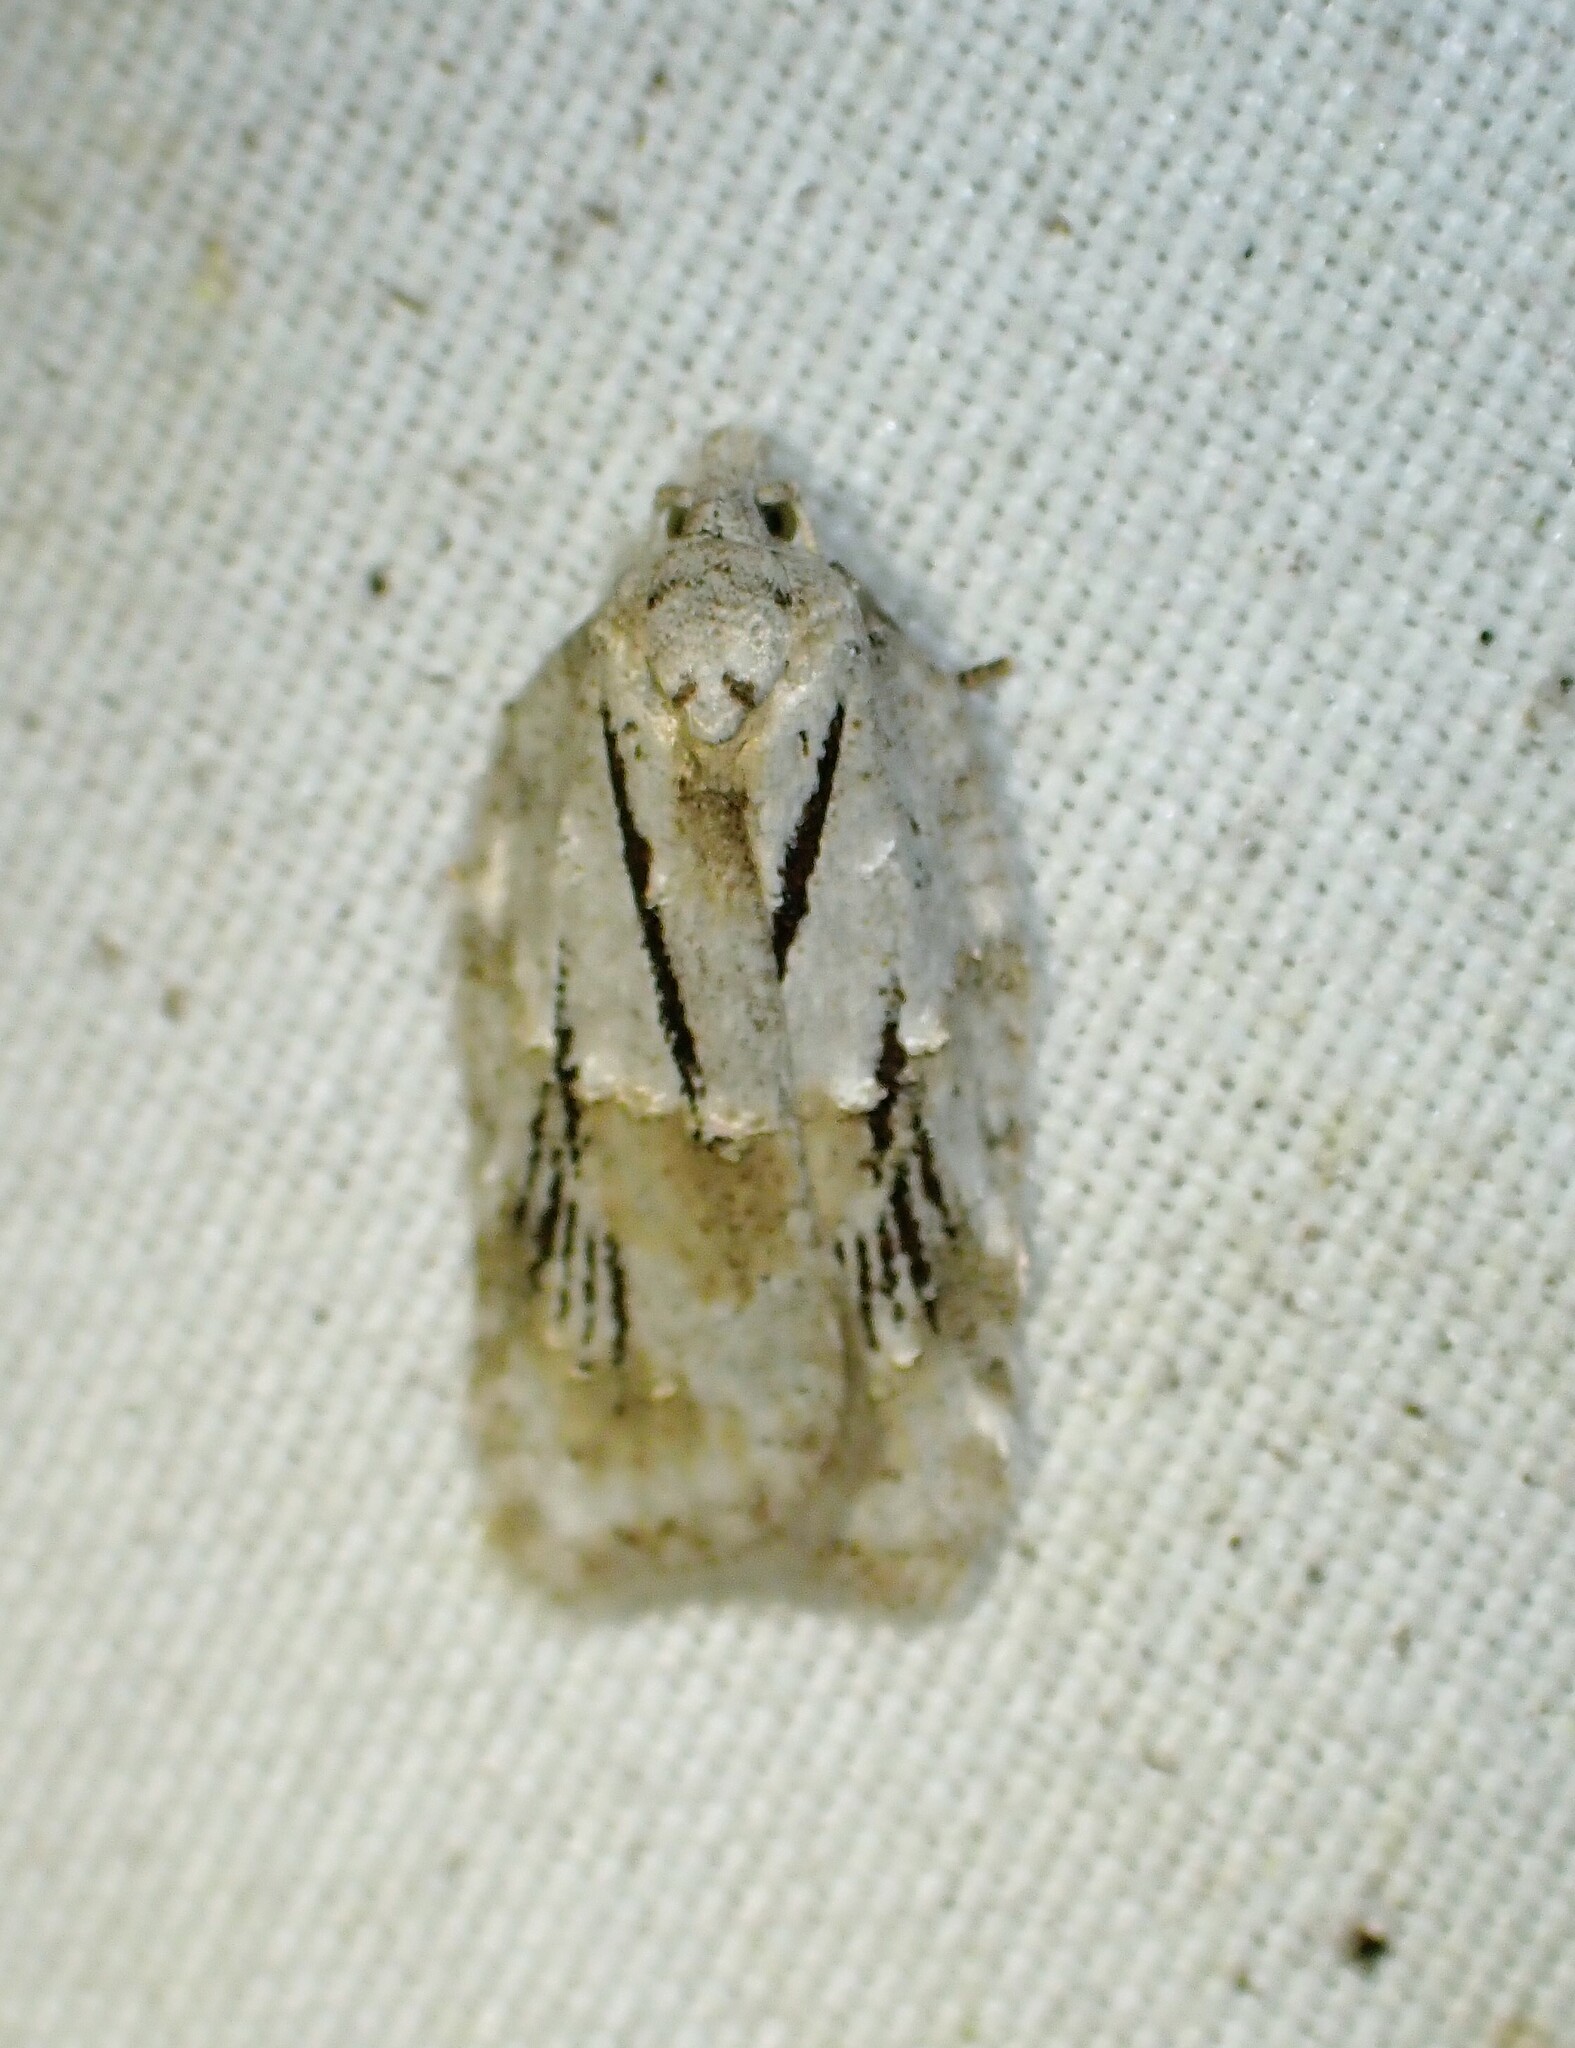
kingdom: Animalia
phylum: Arthropoda
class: Insecta
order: Lepidoptera
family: Tortricidae
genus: Acleris
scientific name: Acleris placidana
